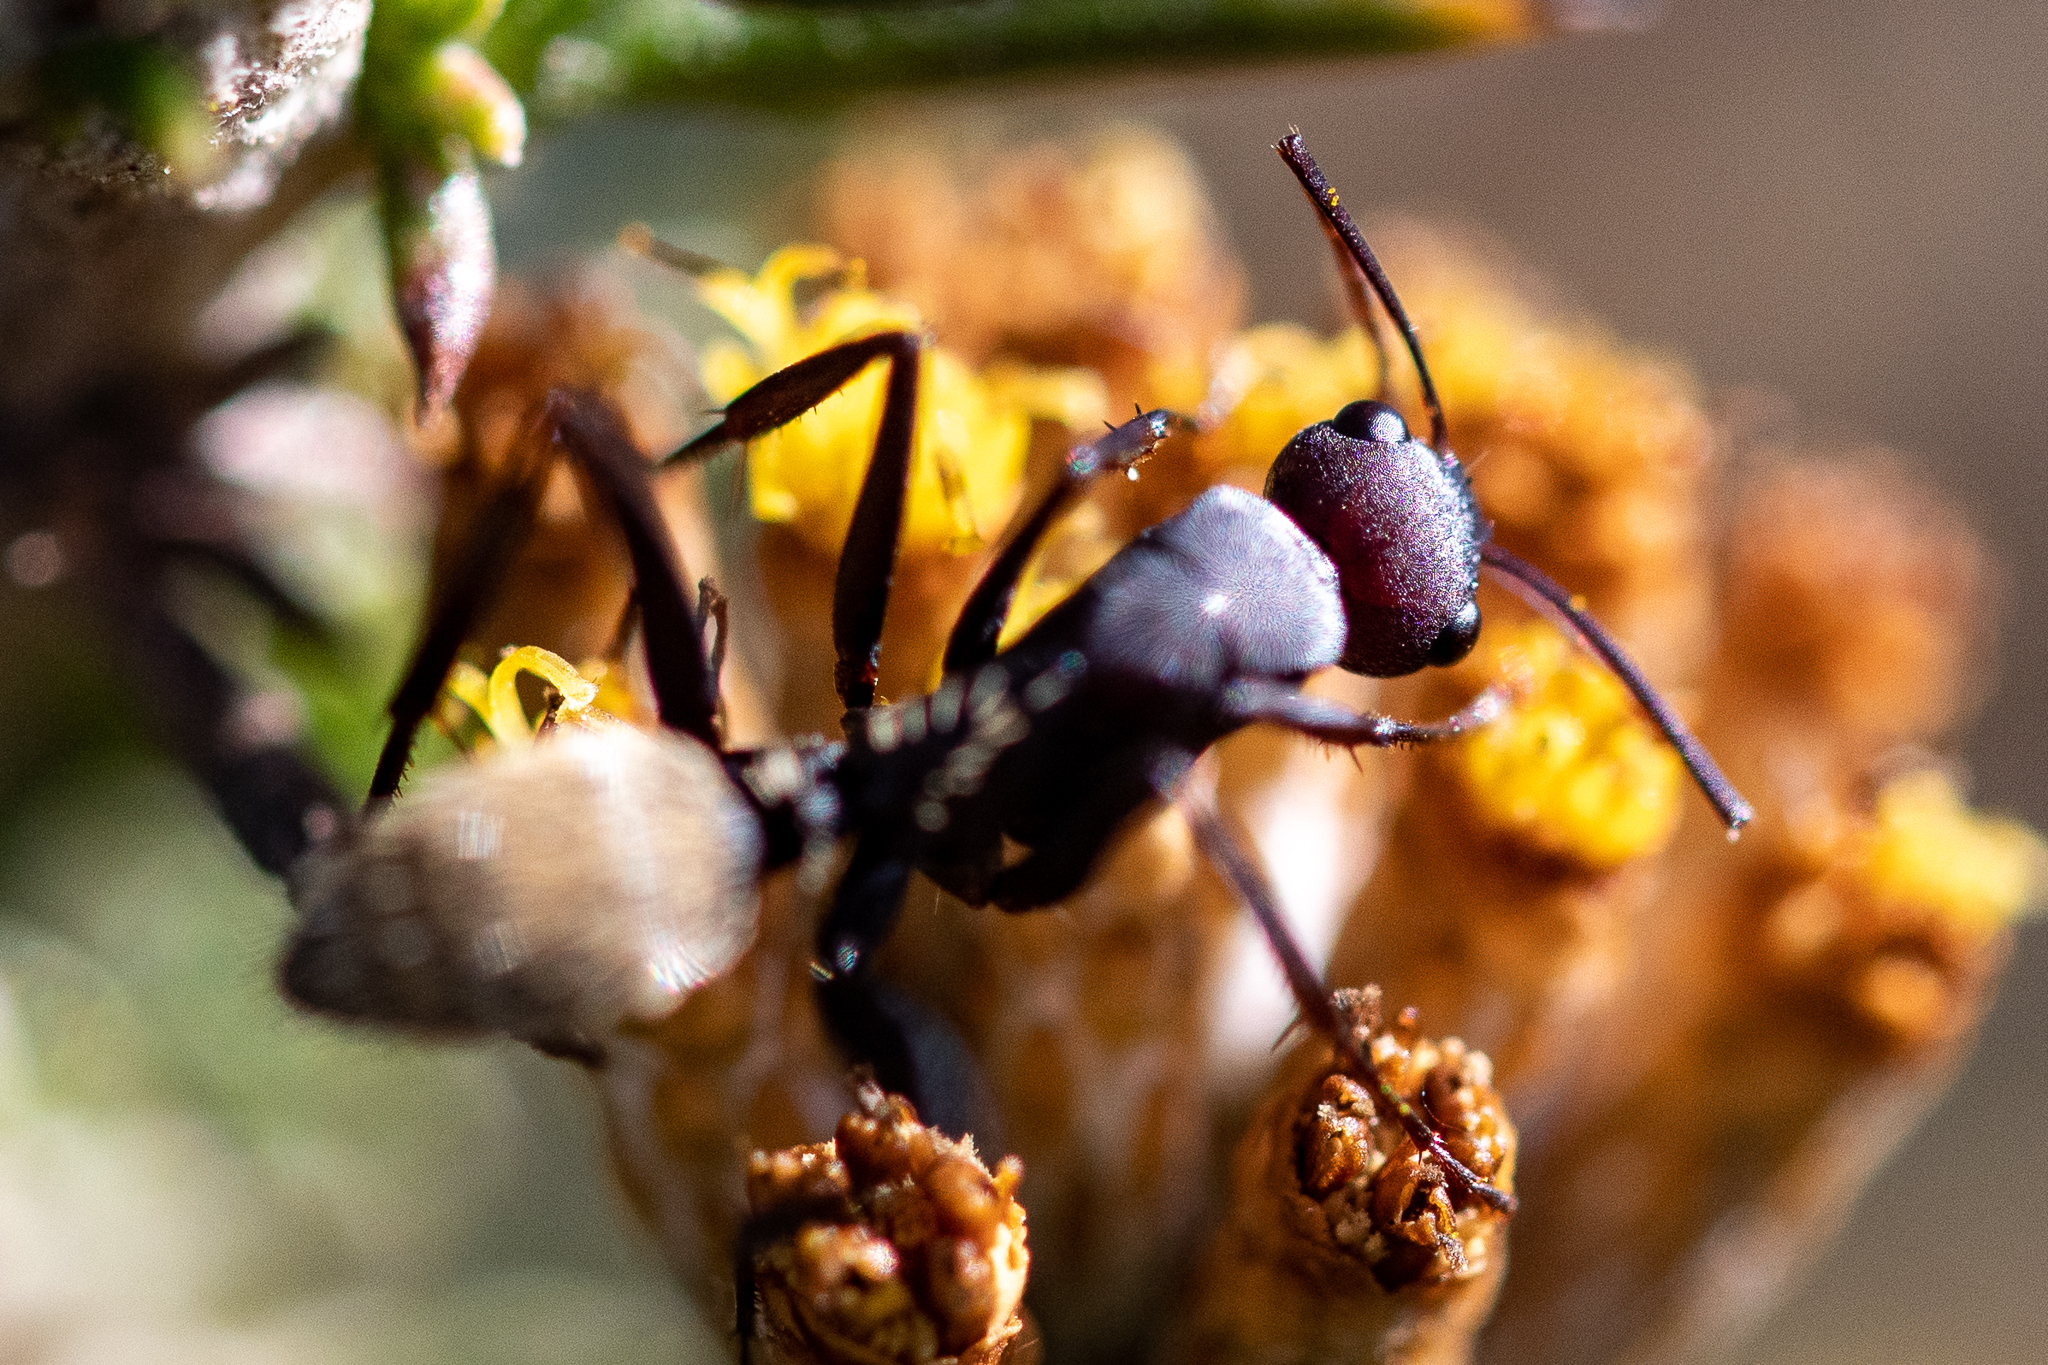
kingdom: Animalia
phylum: Arthropoda
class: Insecta
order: Hymenoptera
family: Formicidae
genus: Camponotus
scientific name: Camponotus fulvopilosus
